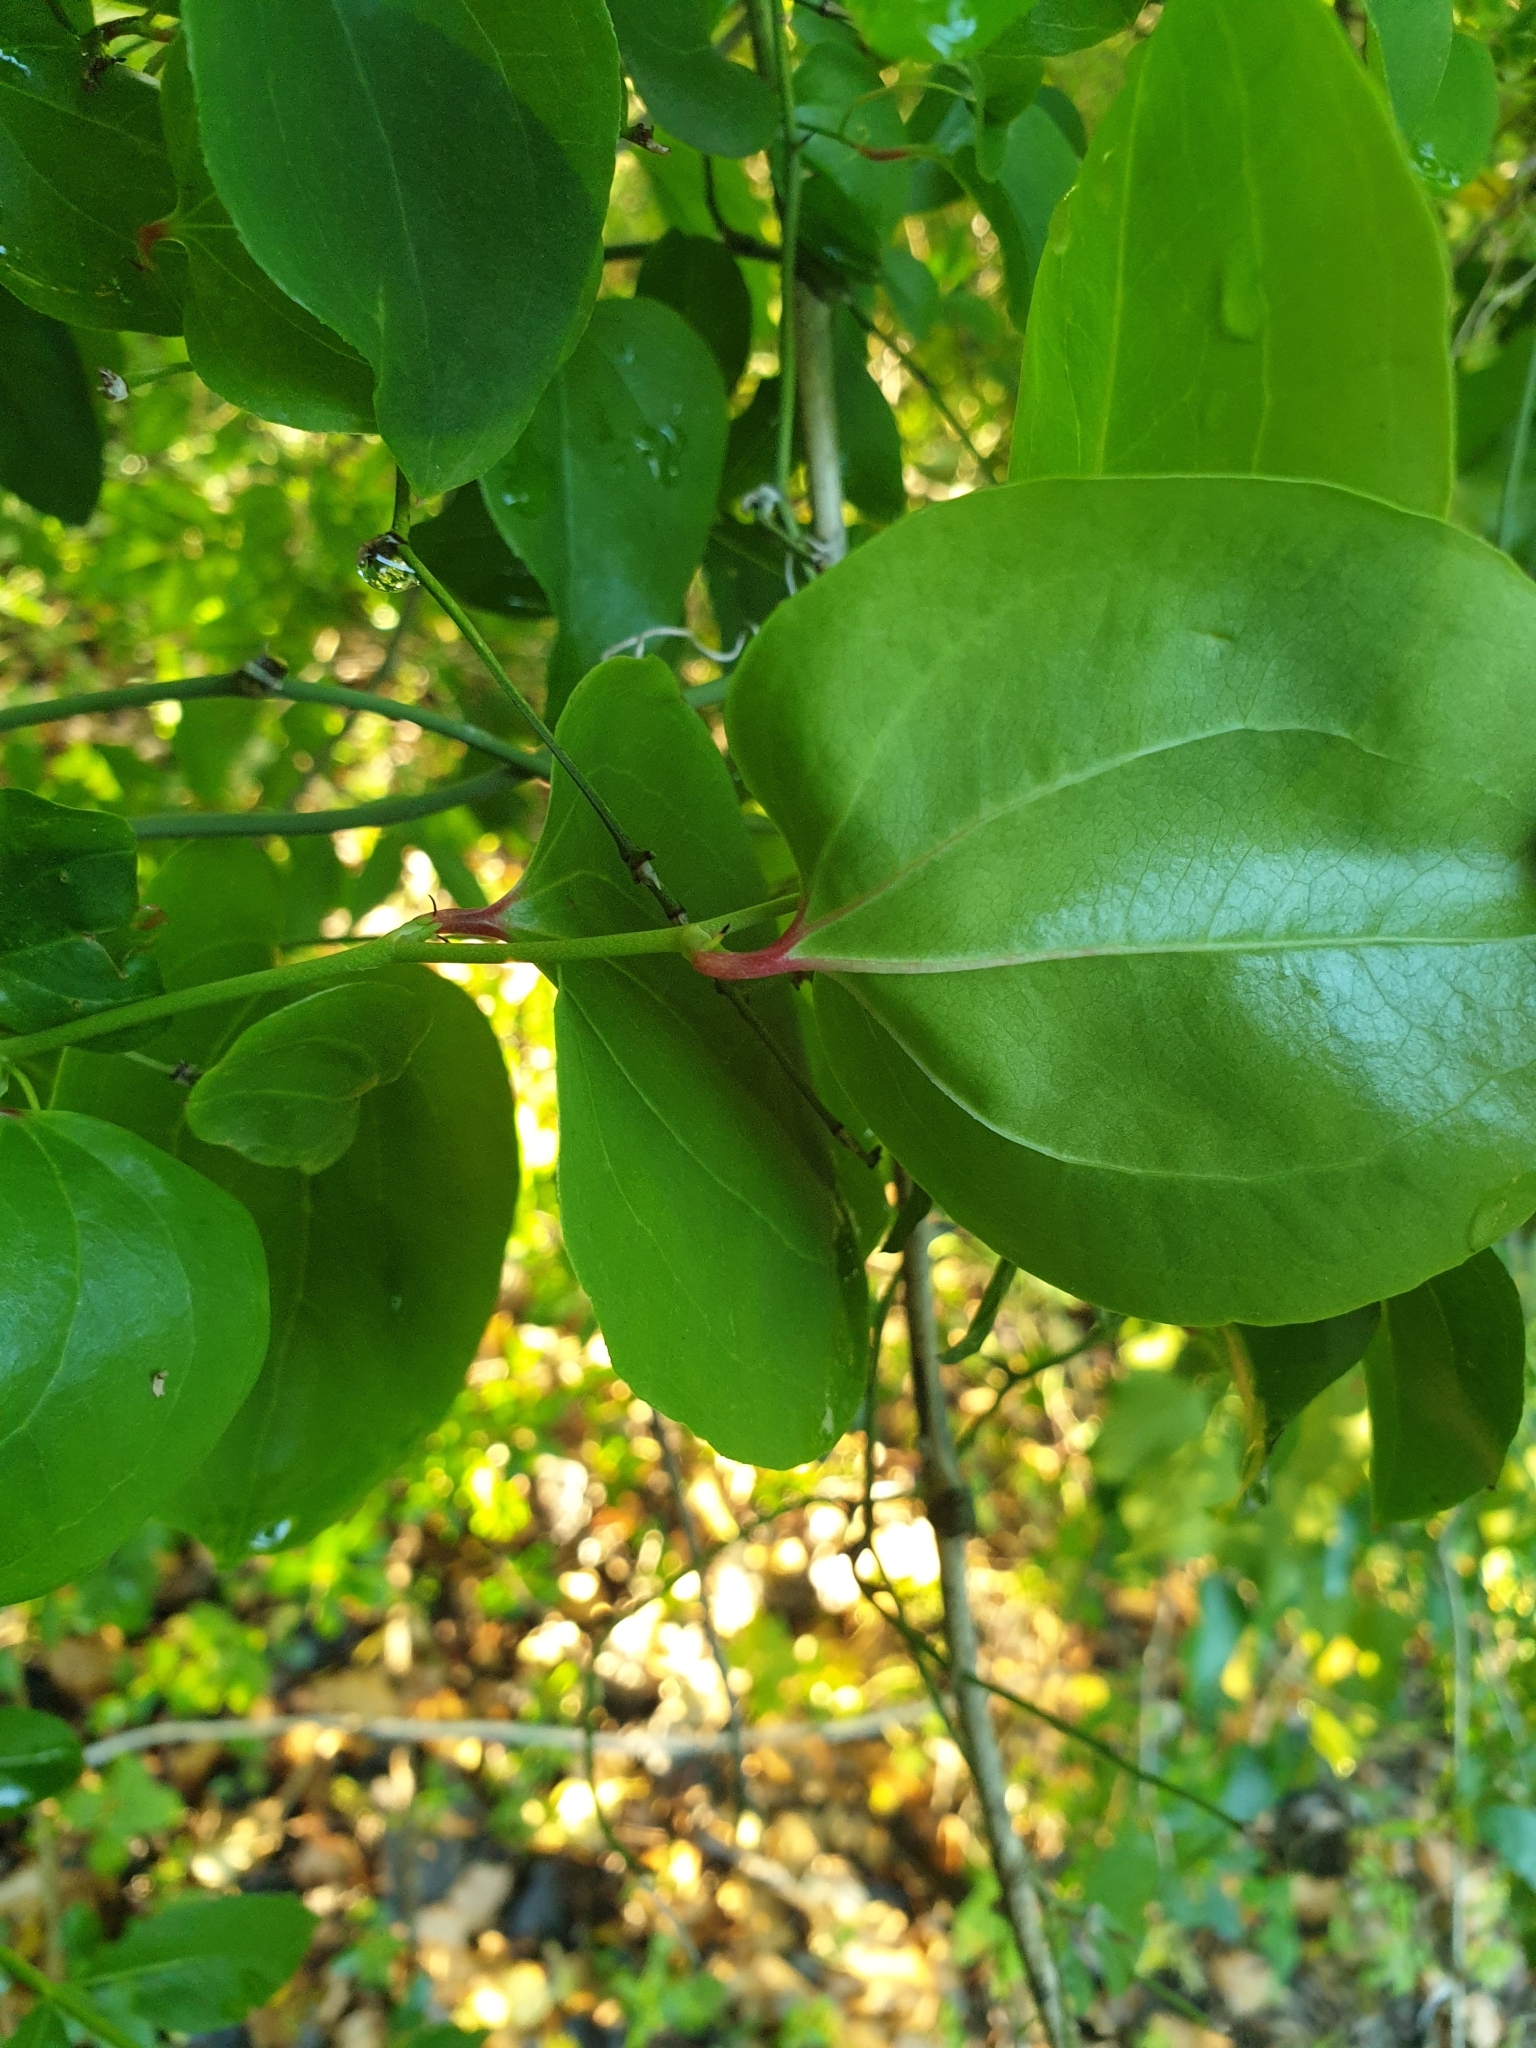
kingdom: Plantae
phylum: Tracheophyta
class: Liliopsida
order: Liliales
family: Smilacaceae
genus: Smilax
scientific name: Smilax excelsa
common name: Larger smilax
